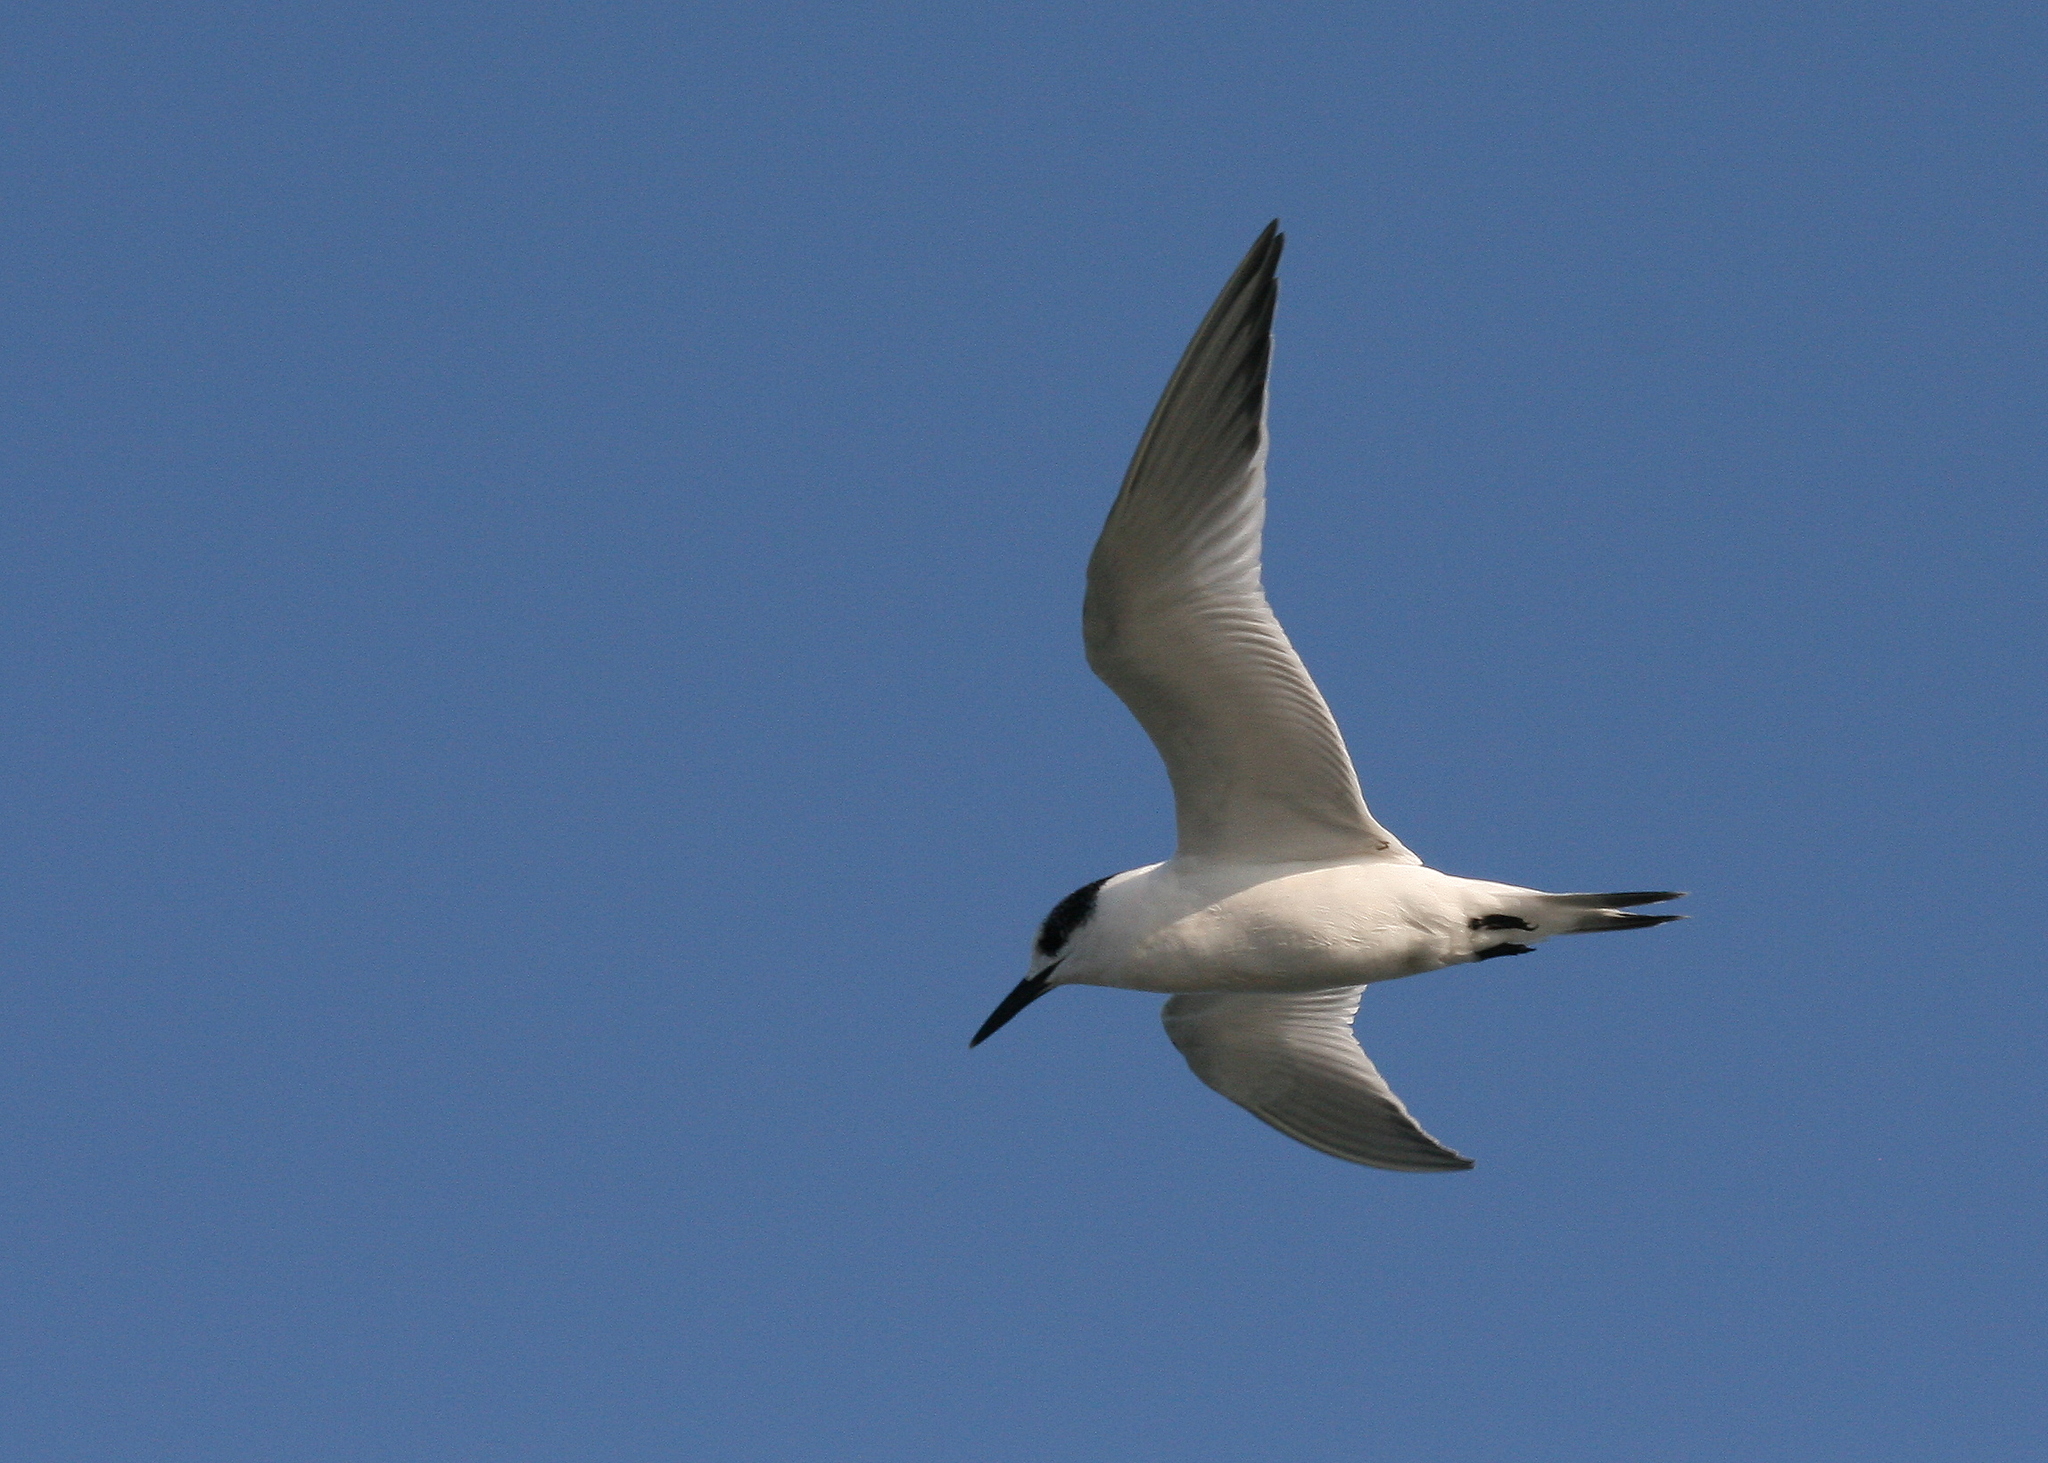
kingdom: Animalia
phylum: Chordata
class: Aves
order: Charadriiformes
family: Laridae
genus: Thalasseus
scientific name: Thalasseus sandvicensis
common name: Sandwich tern
